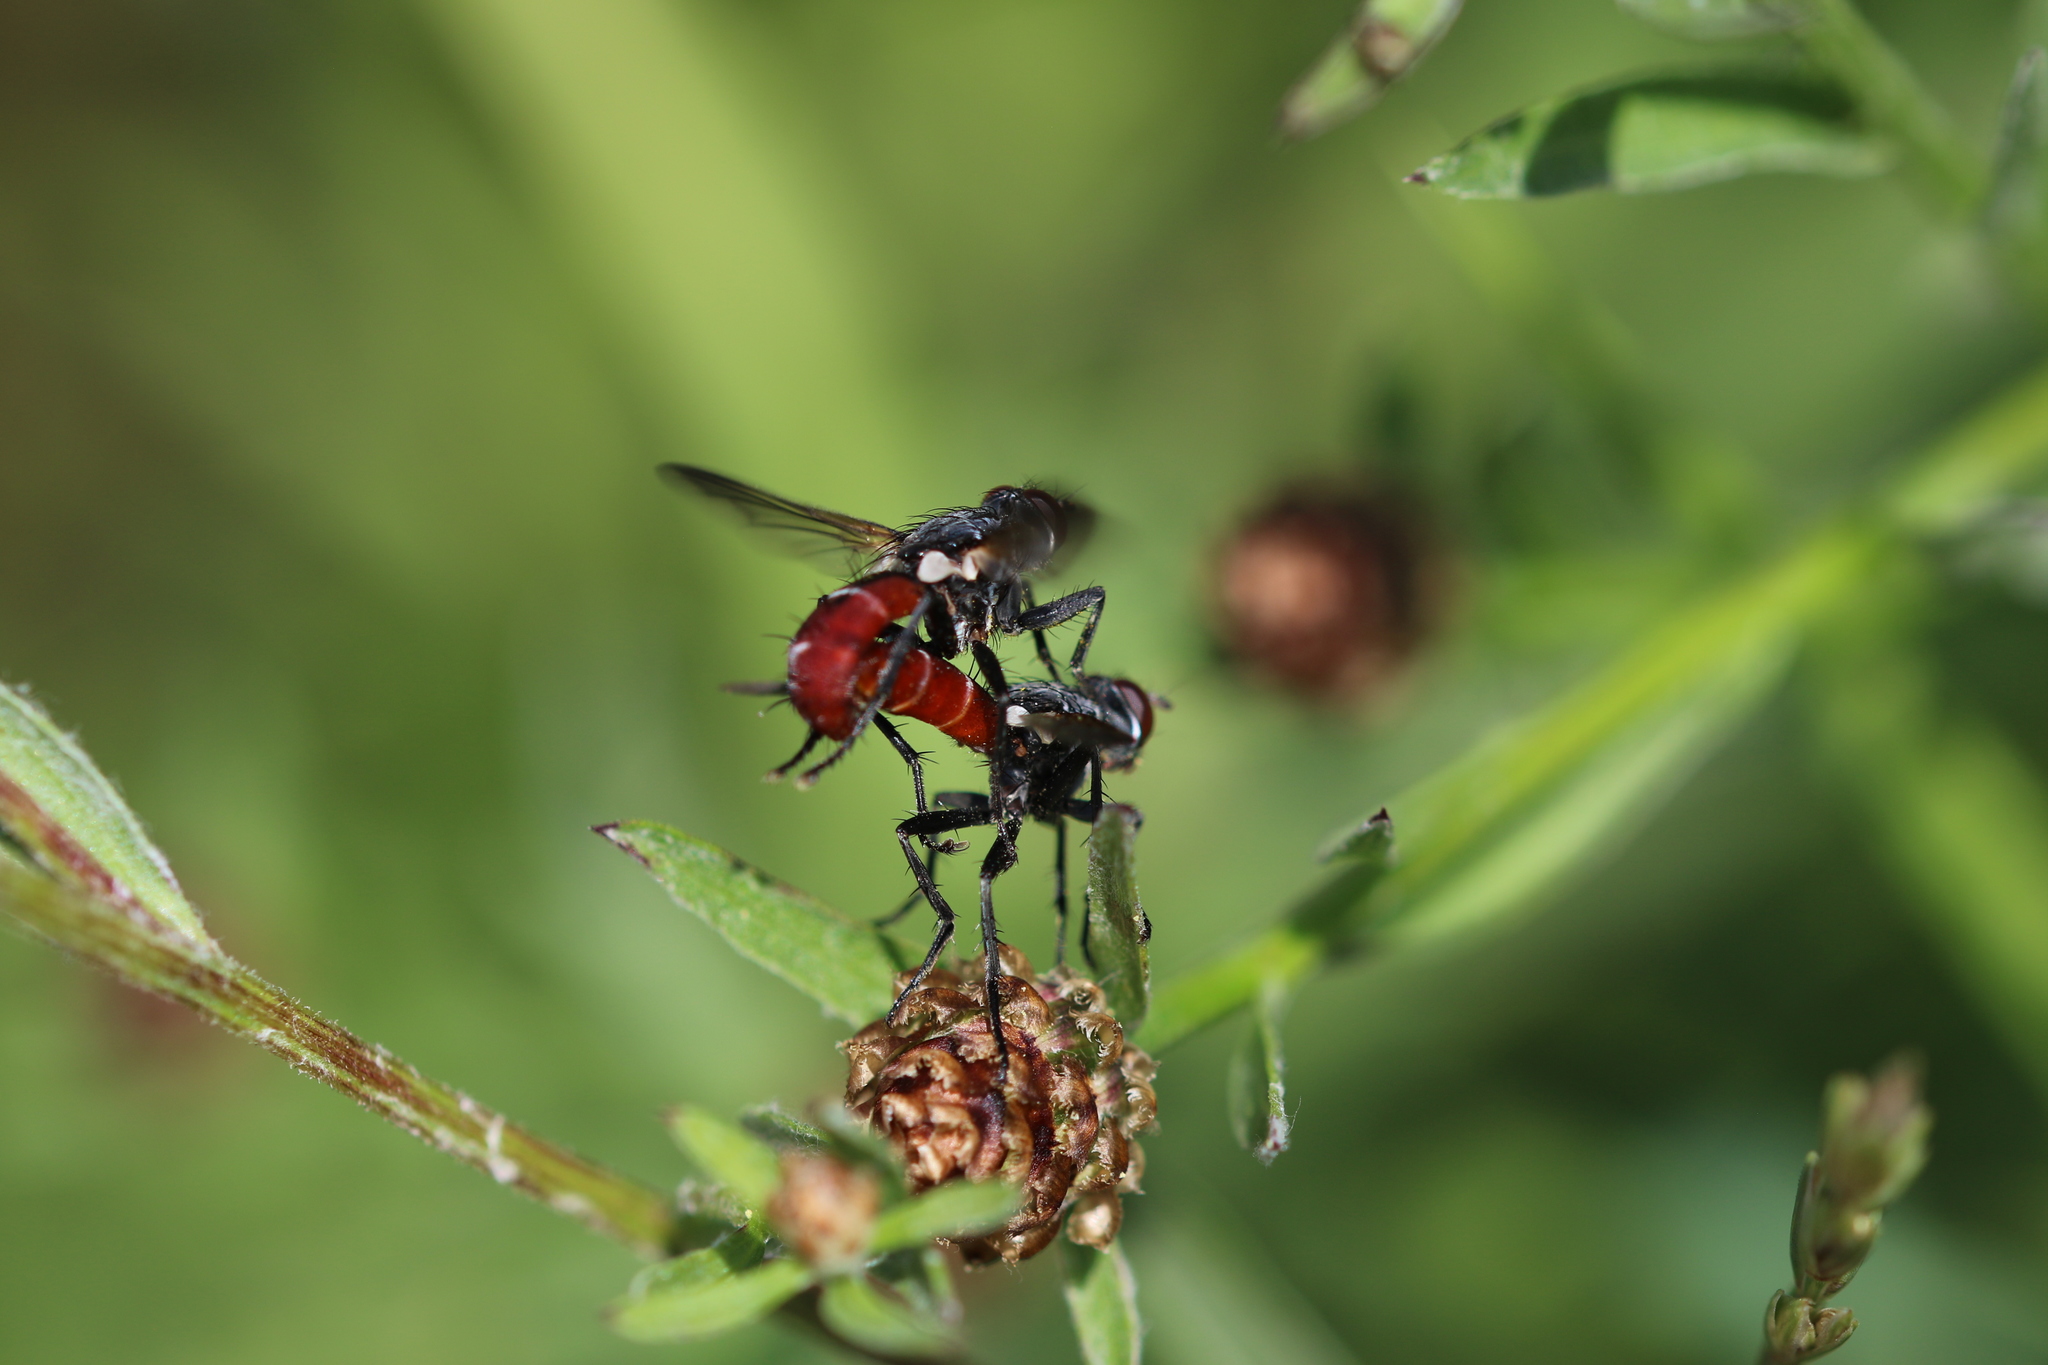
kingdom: Animalia
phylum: Arthropoda
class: Insecta
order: Diptera
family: Tachinidae
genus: Cylindromyia
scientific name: Cylindromyia bicolor
